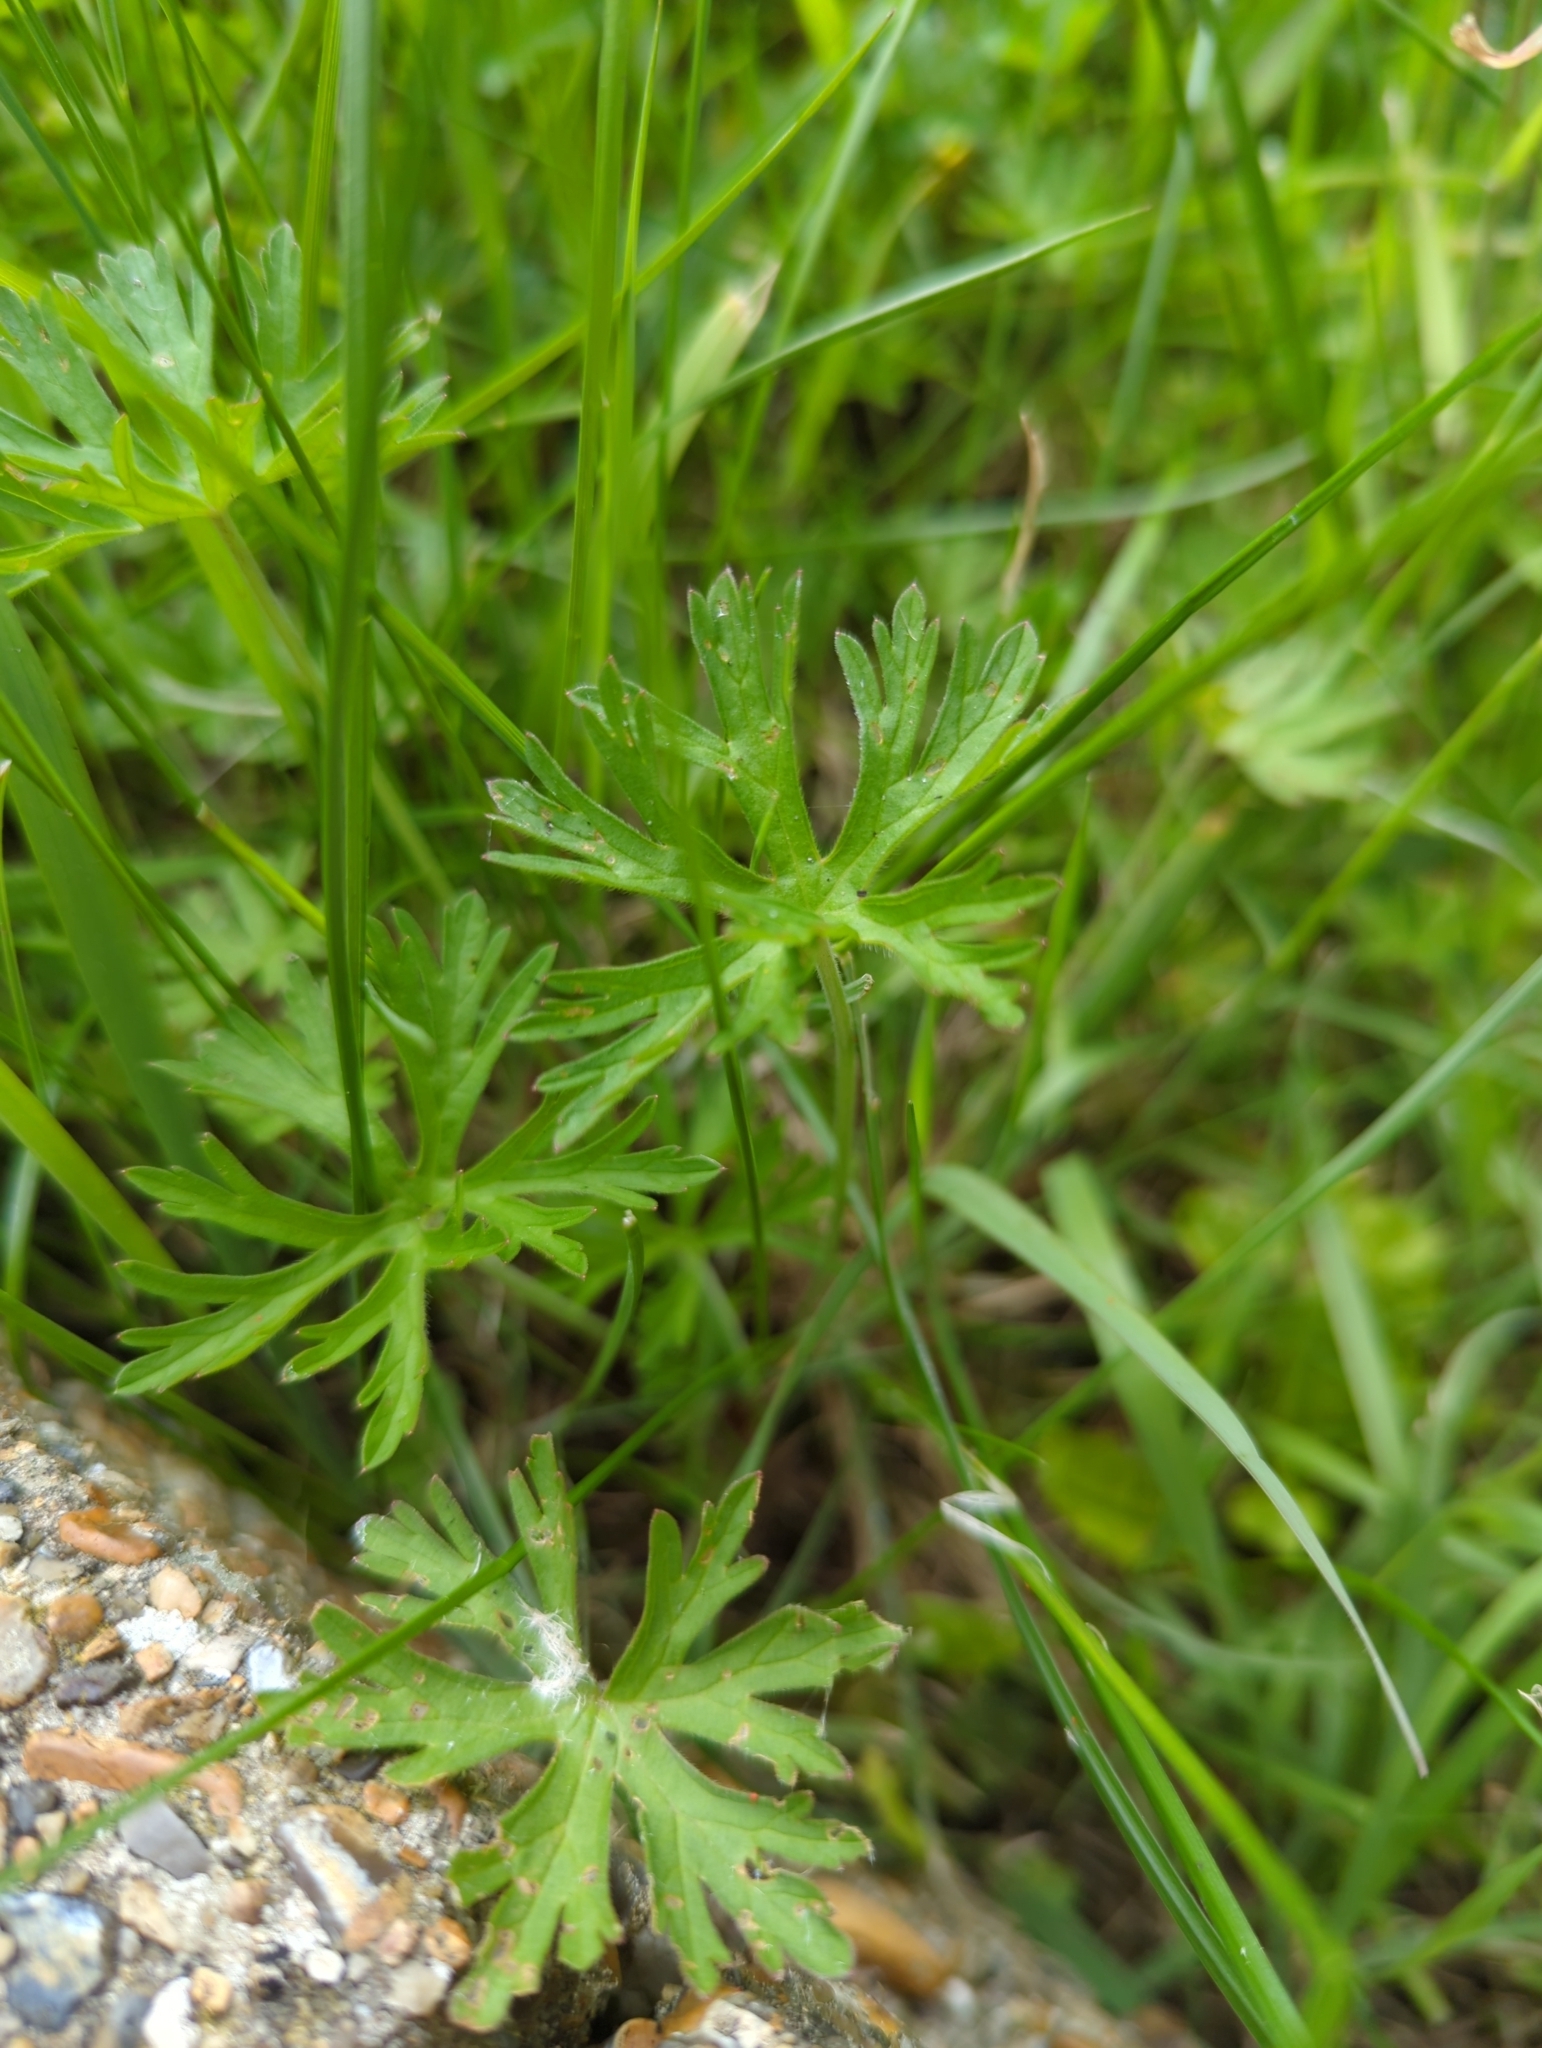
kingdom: Plantae
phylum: Tracheophyta
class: Magnoliopsida
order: Geraniales
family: Geraniaceae
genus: Geranium
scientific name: Geranium dissectum
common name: Cut-leaved crane's-bill
